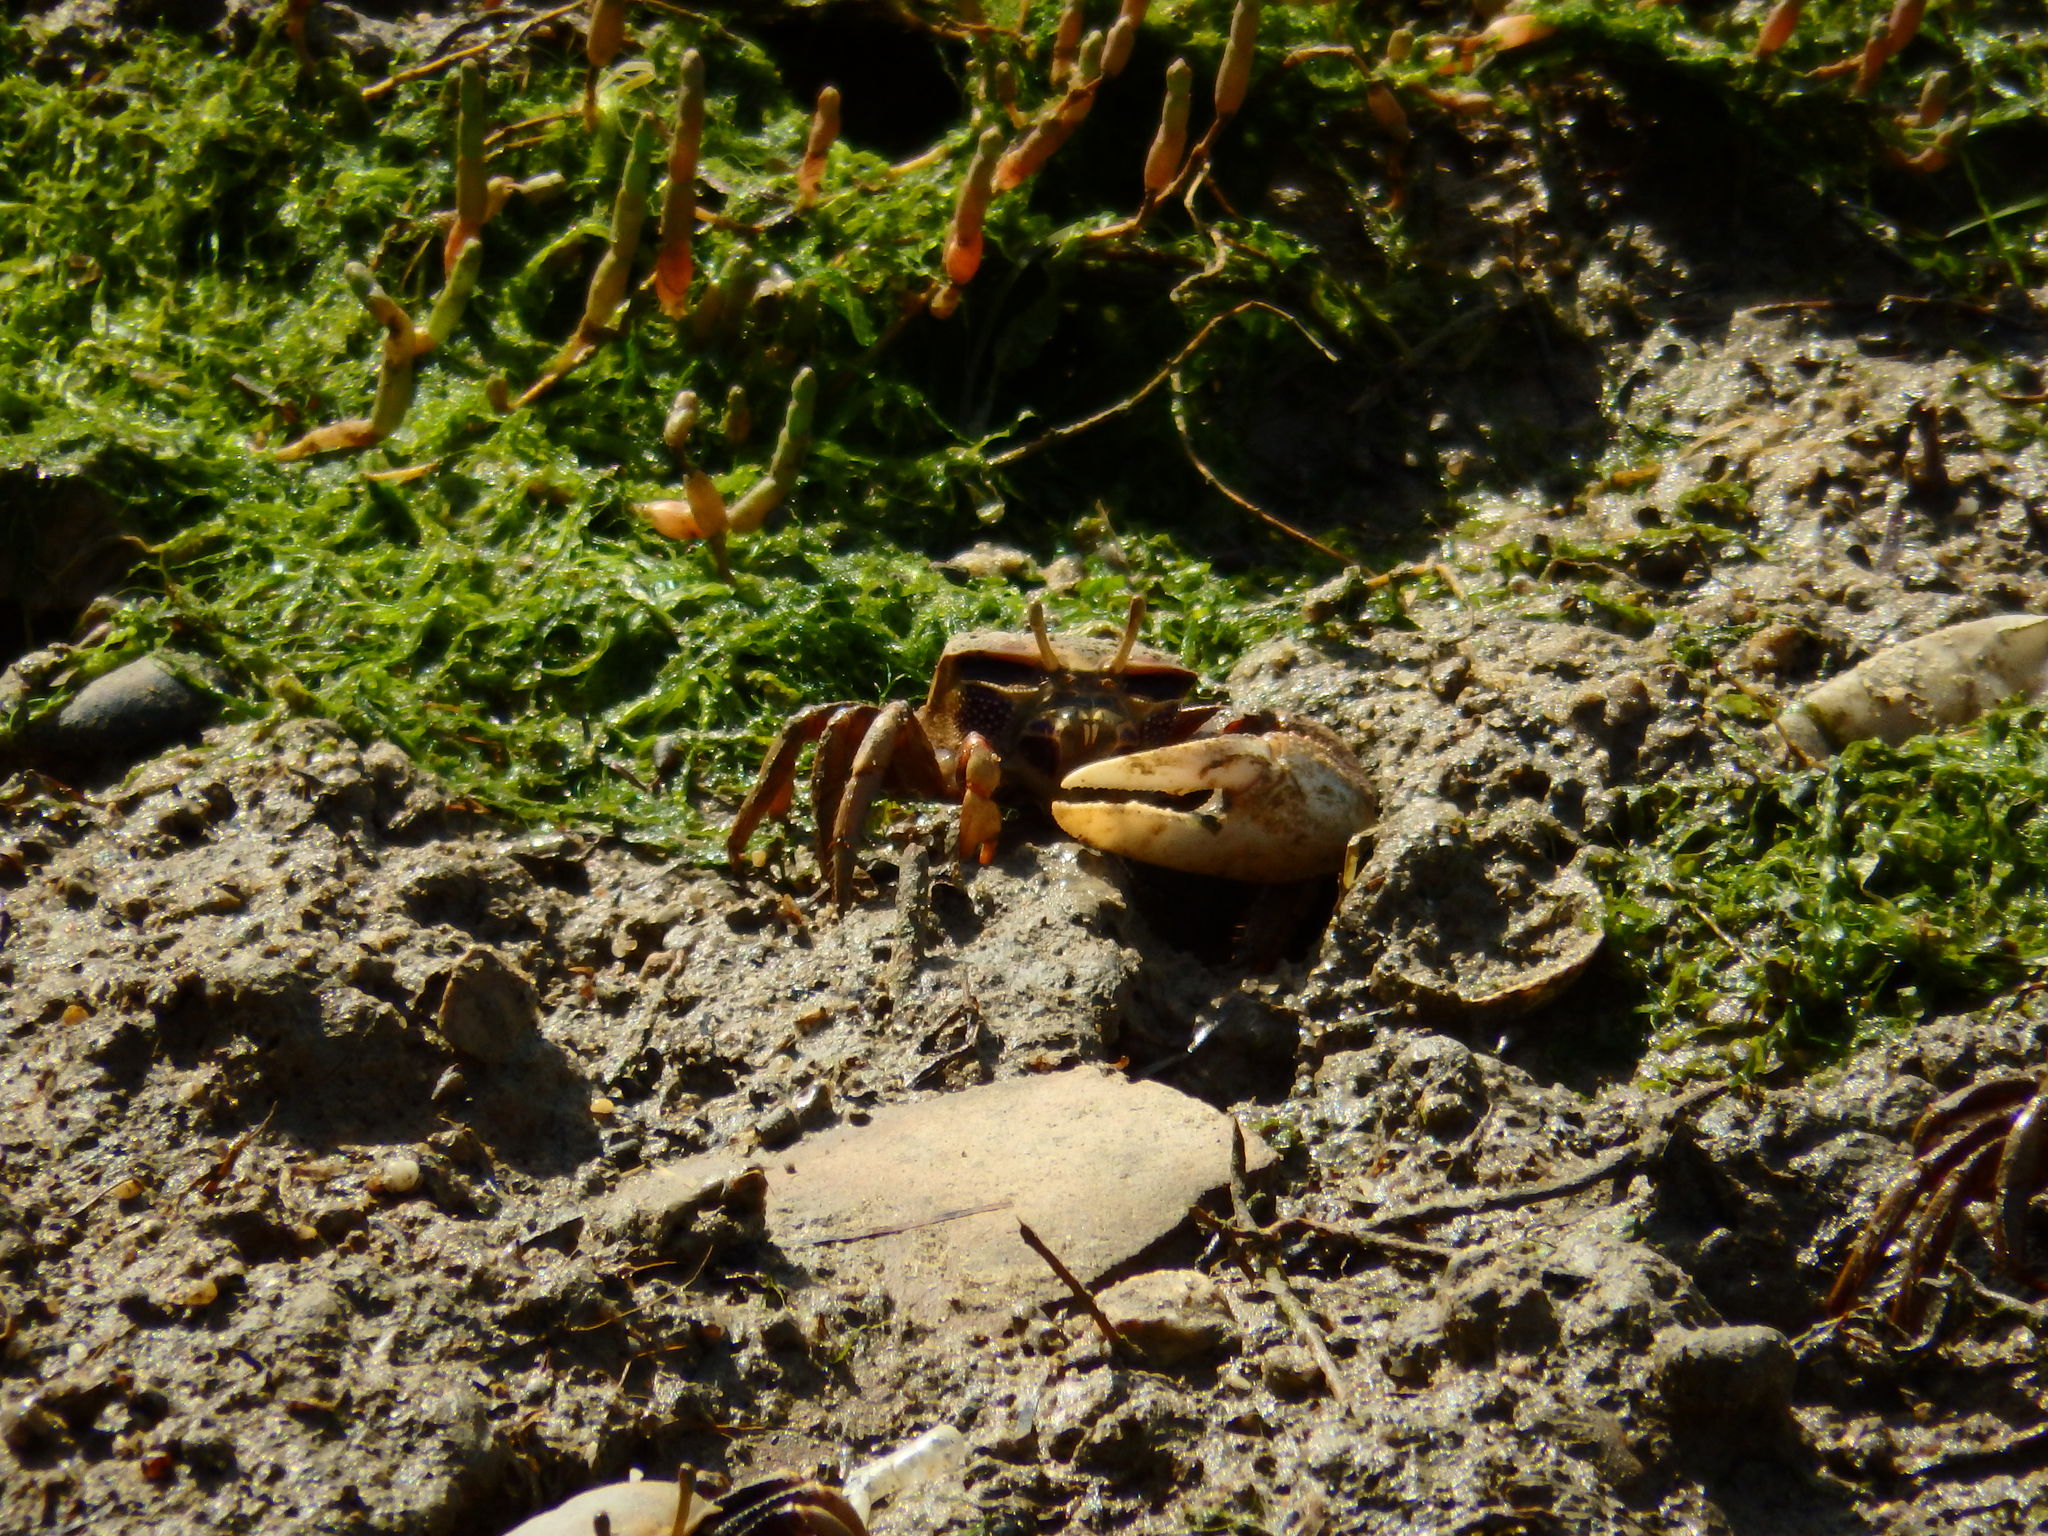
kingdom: Animalia
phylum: Arthropoda
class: Malacostraca
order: Decapoda
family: Ocypodidae
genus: Afruca
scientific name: Afruca tangeri
